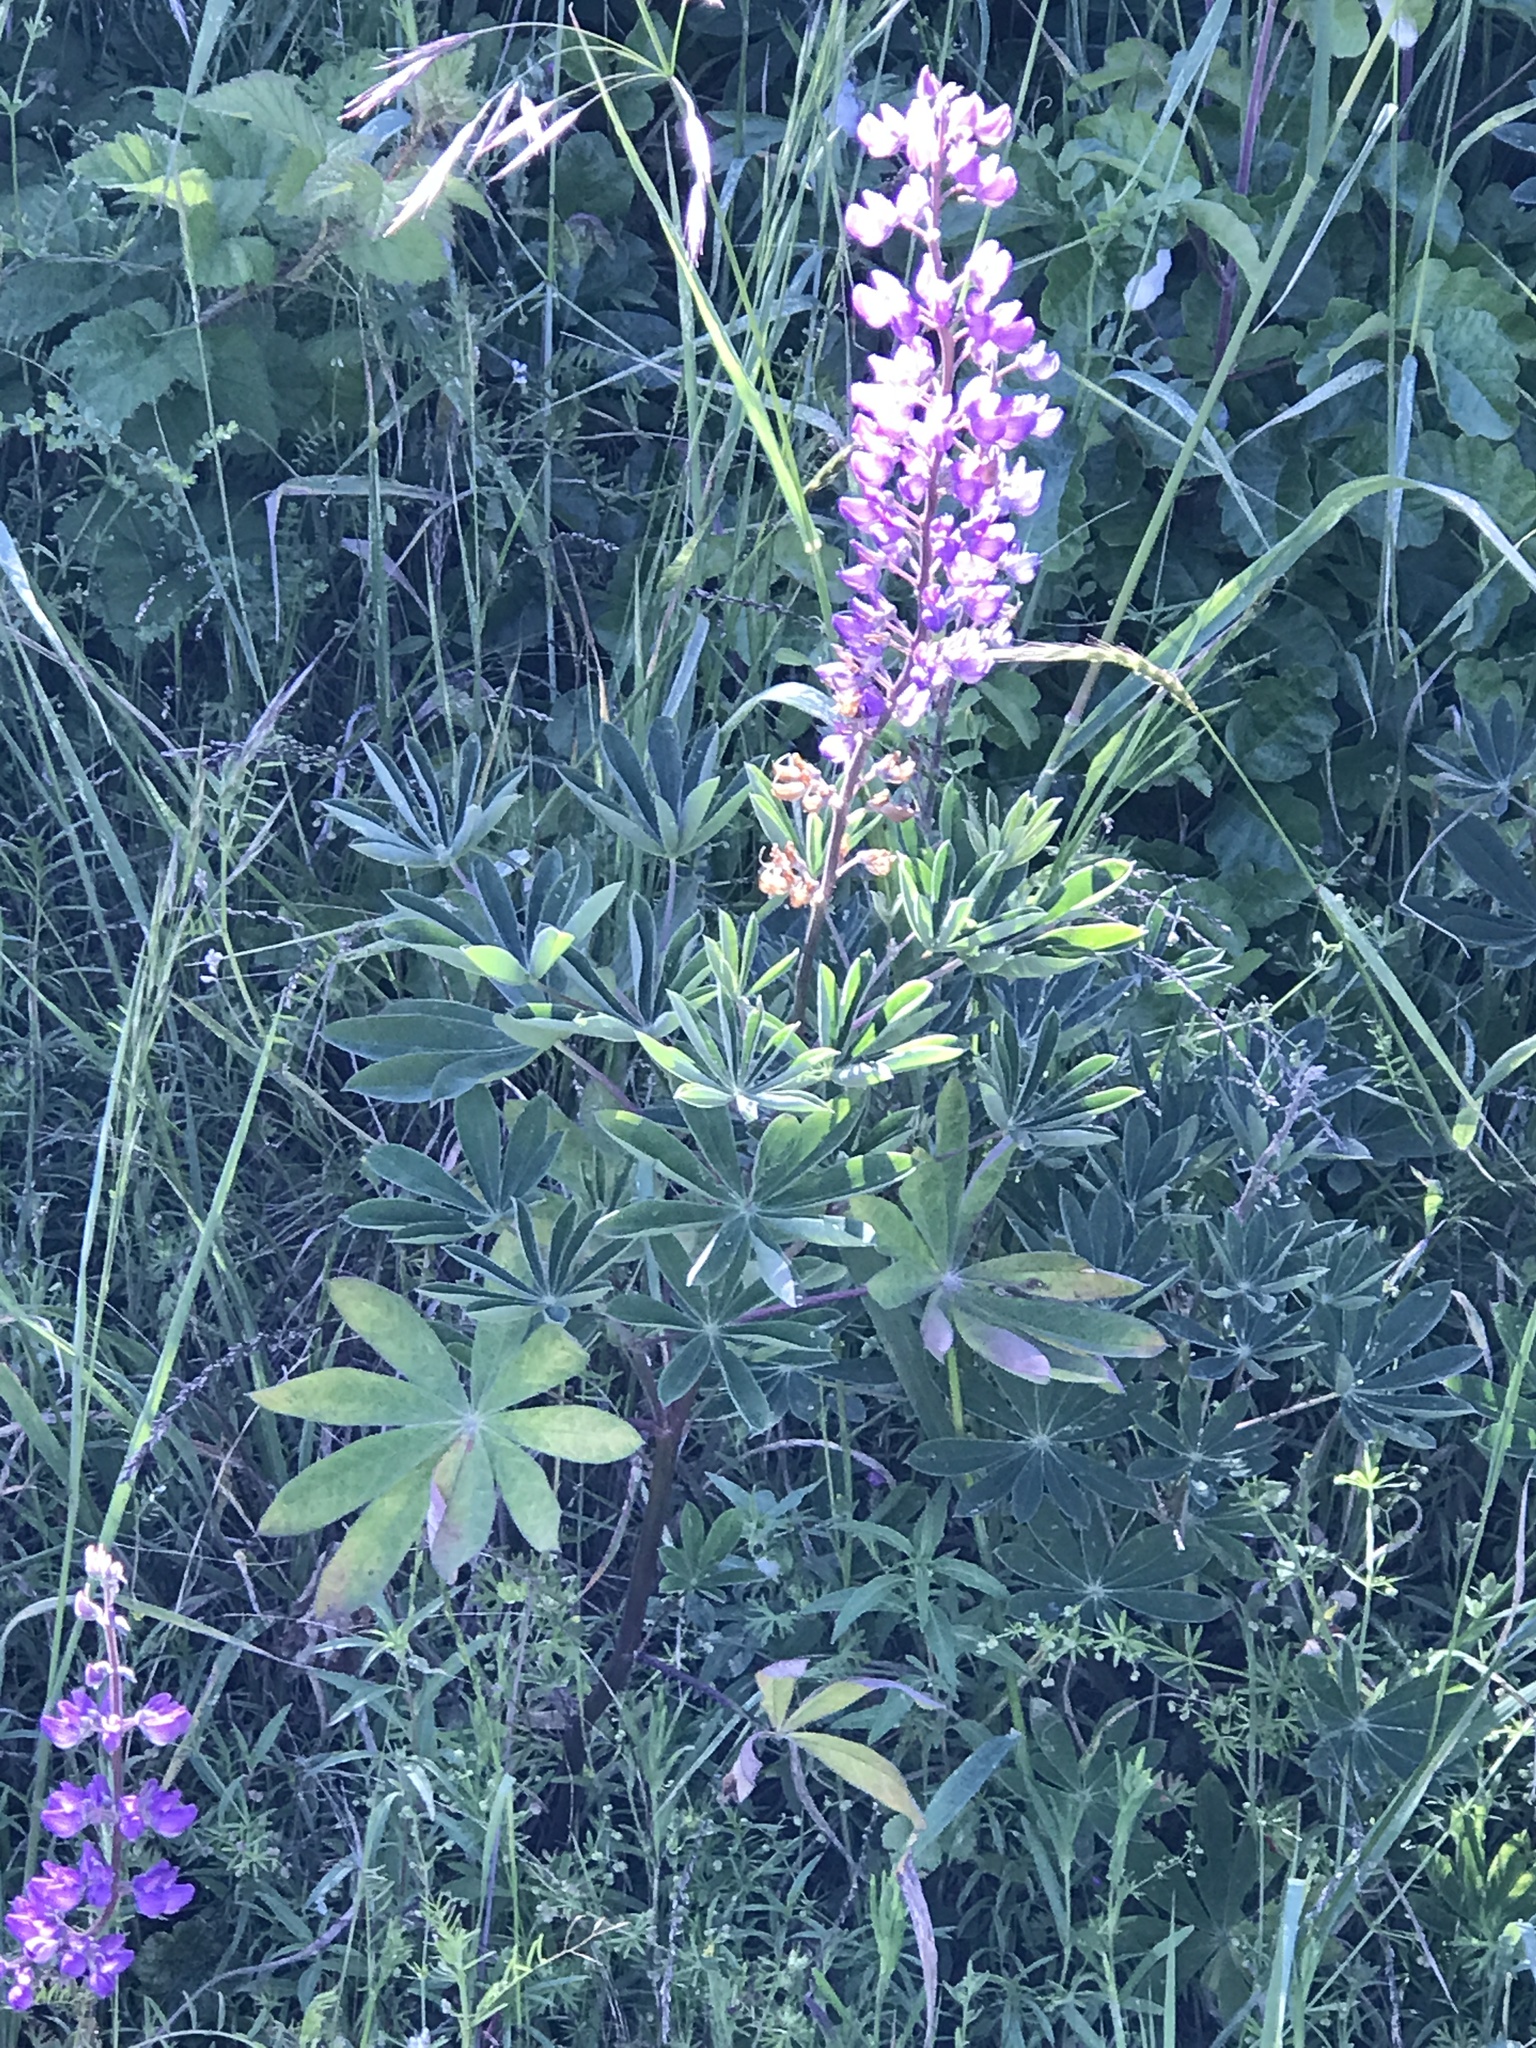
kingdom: Plantae
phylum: Tracheophyta
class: Magnoliopsida
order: Fabales
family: Fabaceae
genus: Lupinus
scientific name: Lupinus latifolius
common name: Broad-leaved lupine
